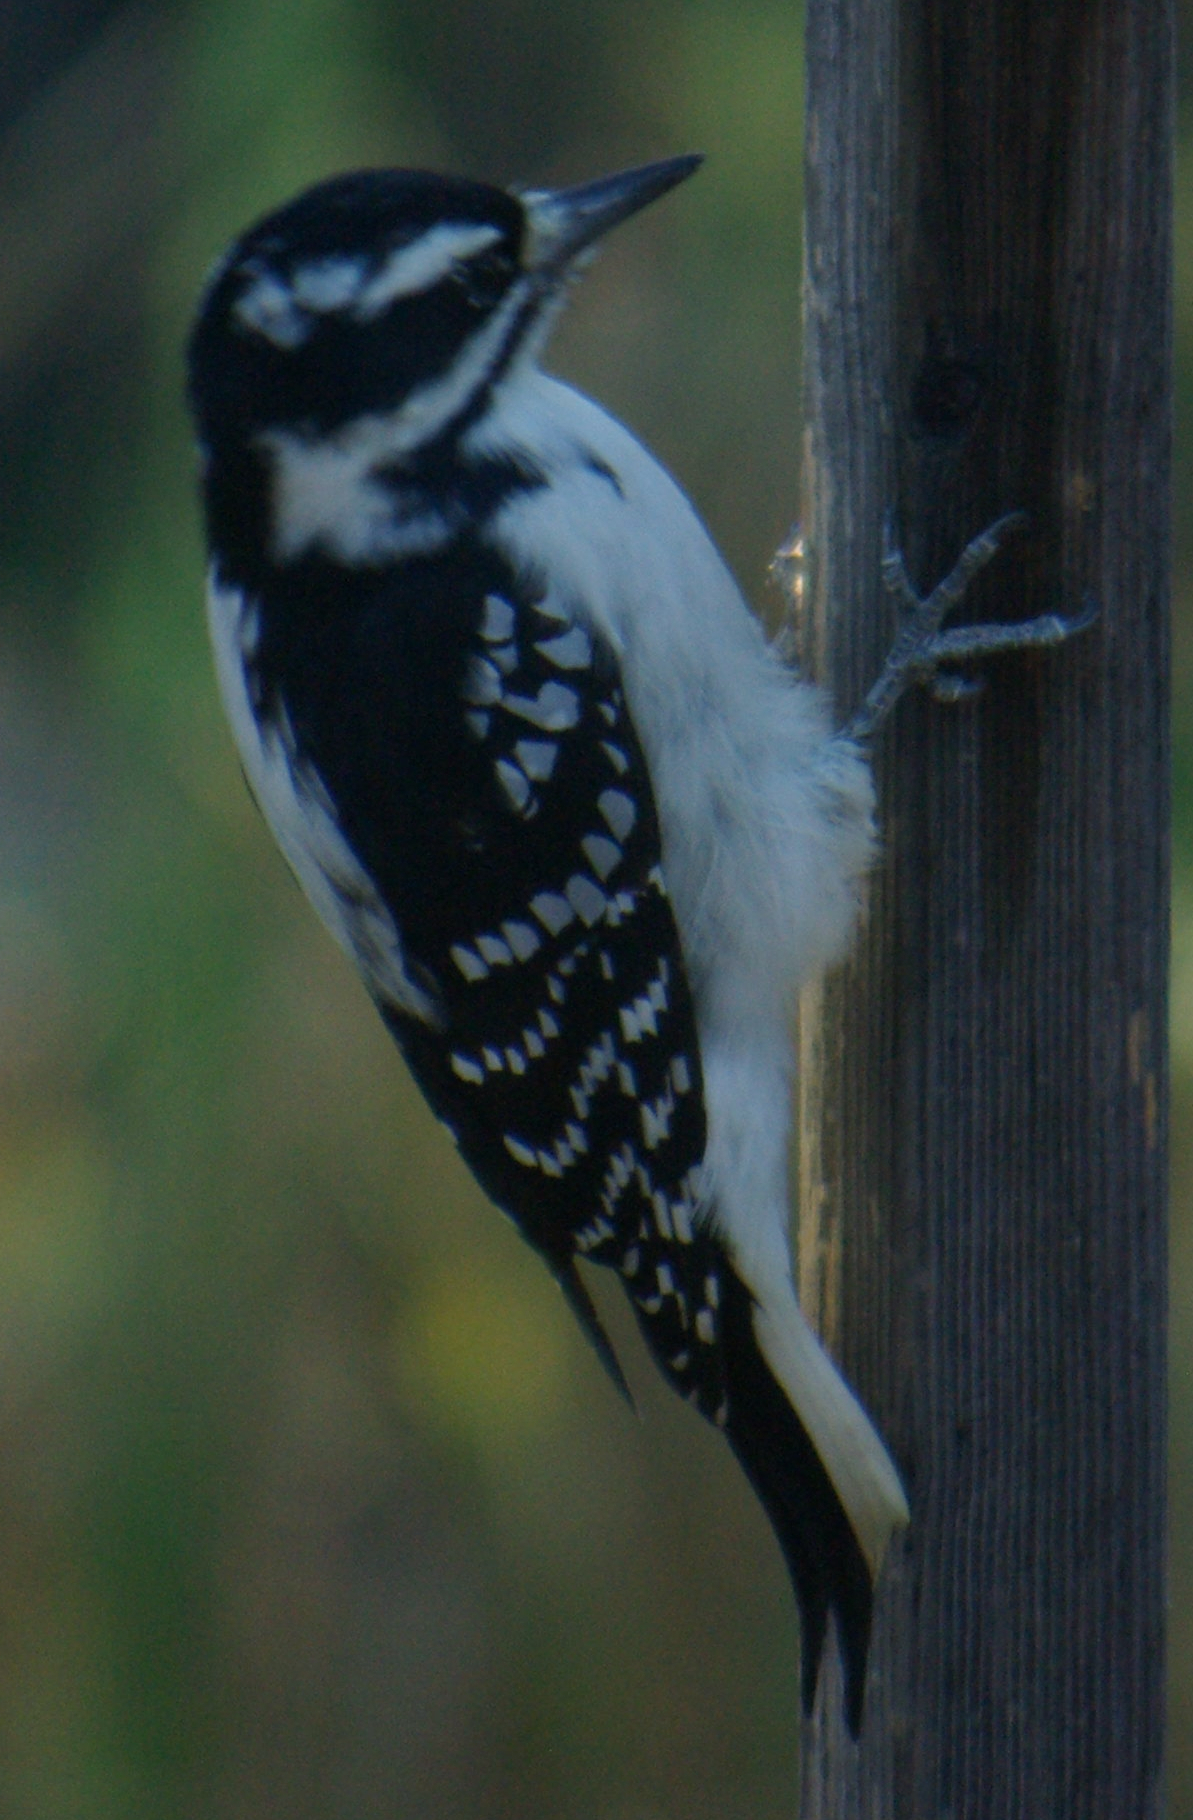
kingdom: Animalia
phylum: Chordata
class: Aves
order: Piciformes
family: Picidae
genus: Leuconotopicus
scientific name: Leuconotopicus villosus
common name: Hairy woodpecker
